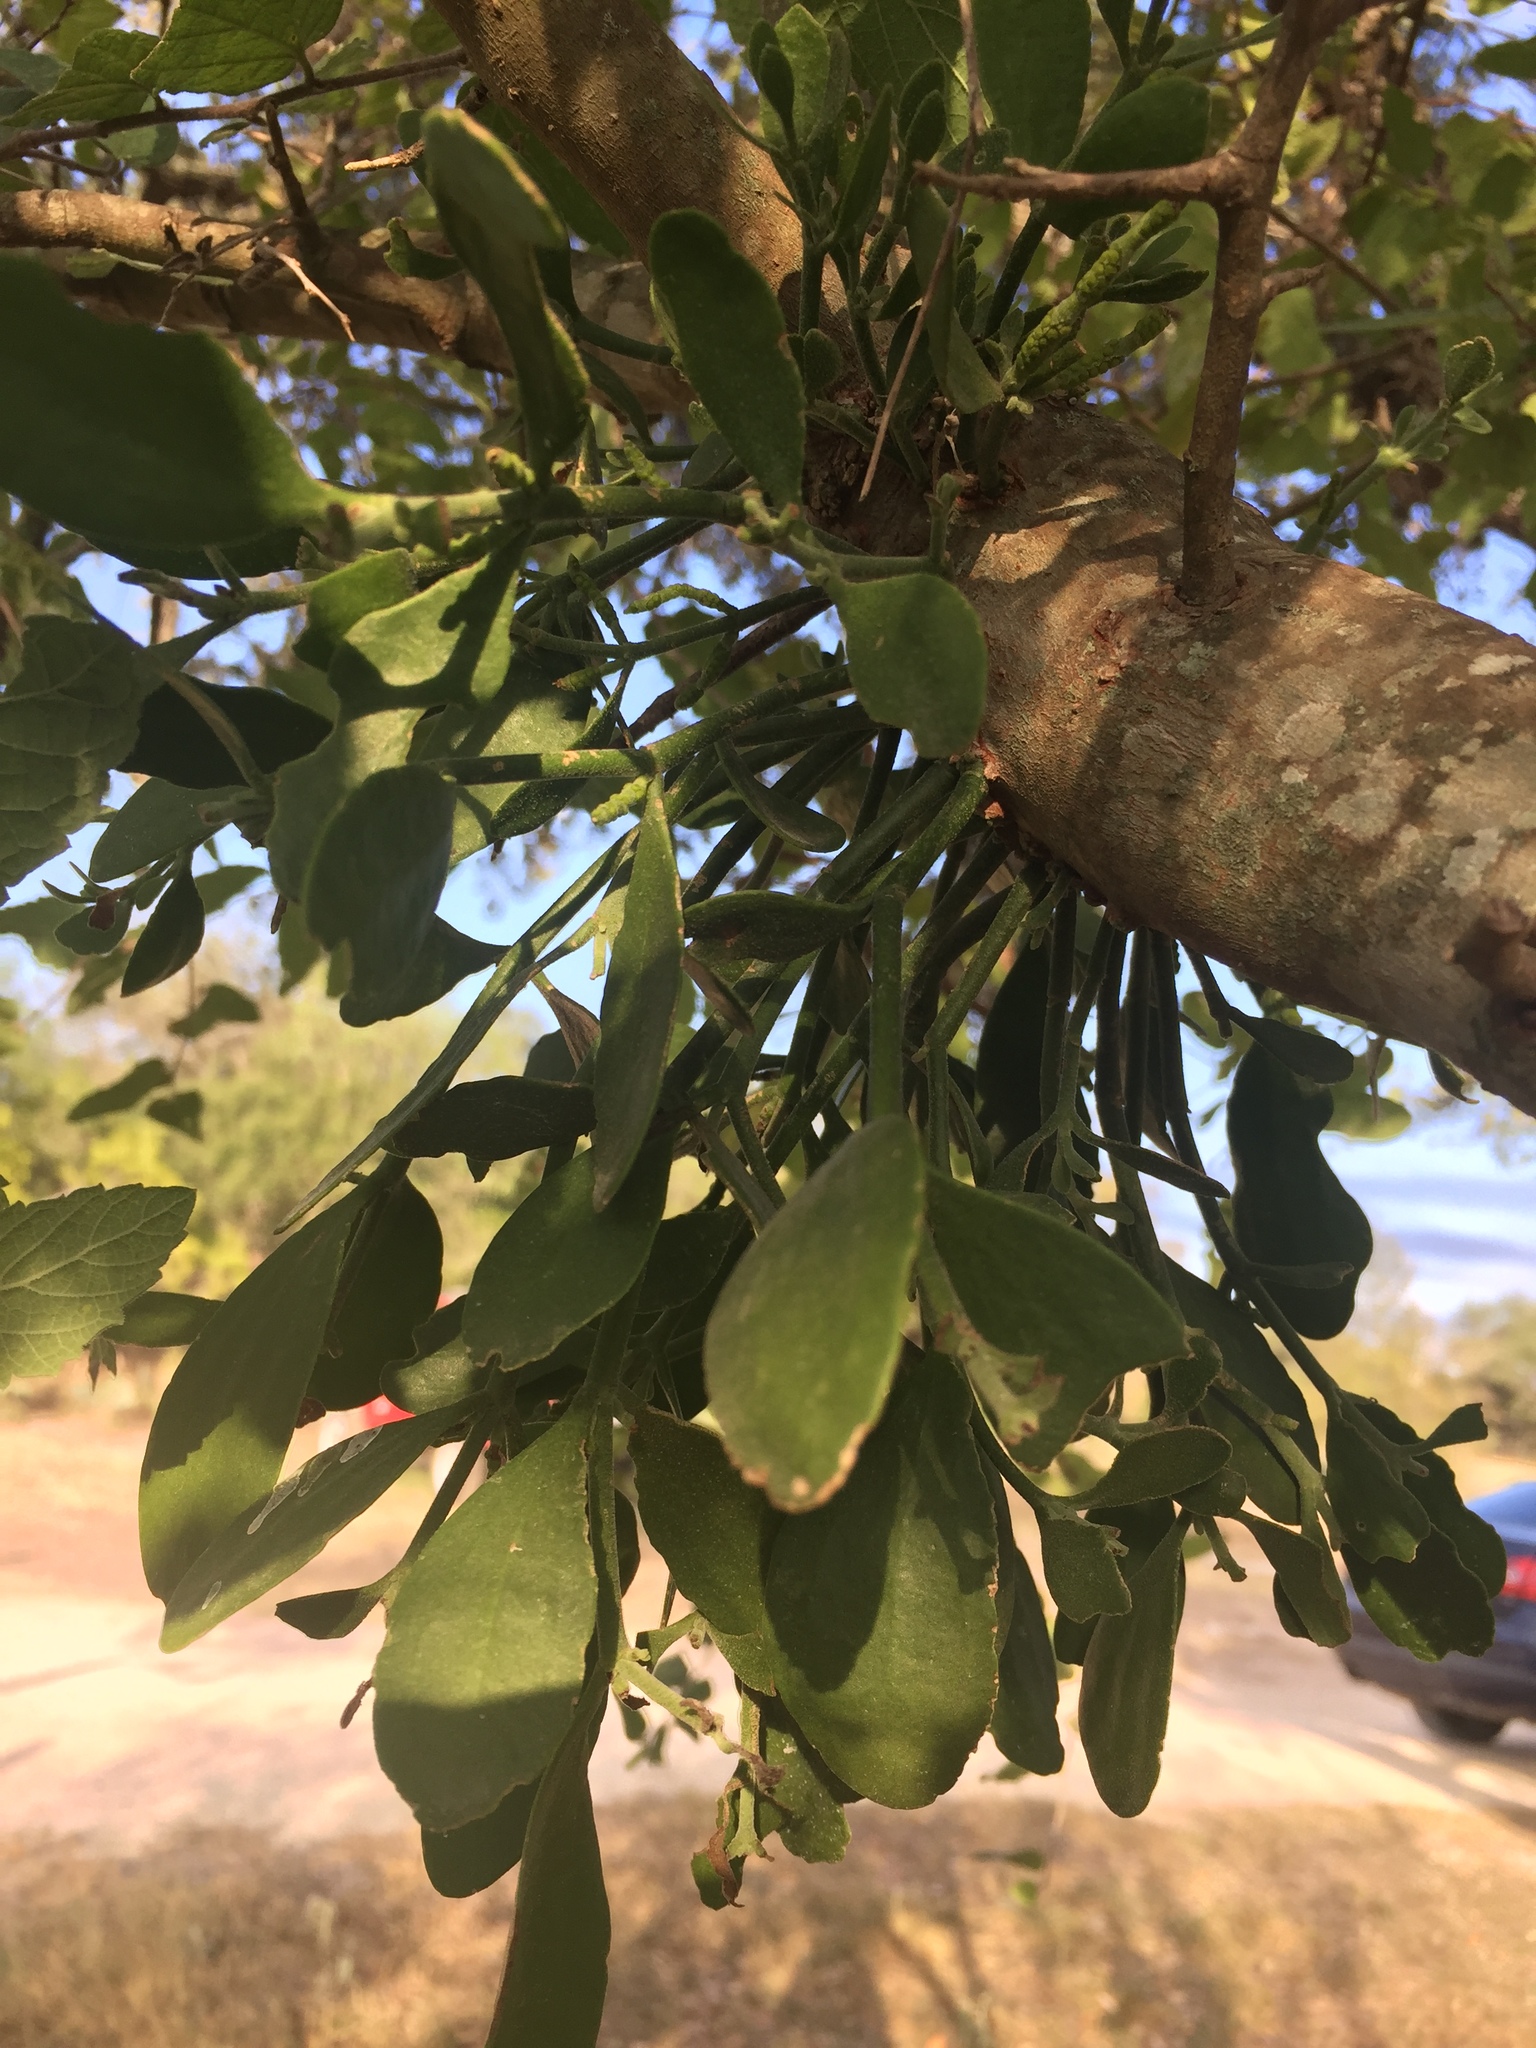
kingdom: Plantae
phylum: Tracheophyta
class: Magnoliopsida
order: Santalales
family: Viscaceae
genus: Phoradendron
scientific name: Phoradendron leucarpum
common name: Pacific mistletoe
